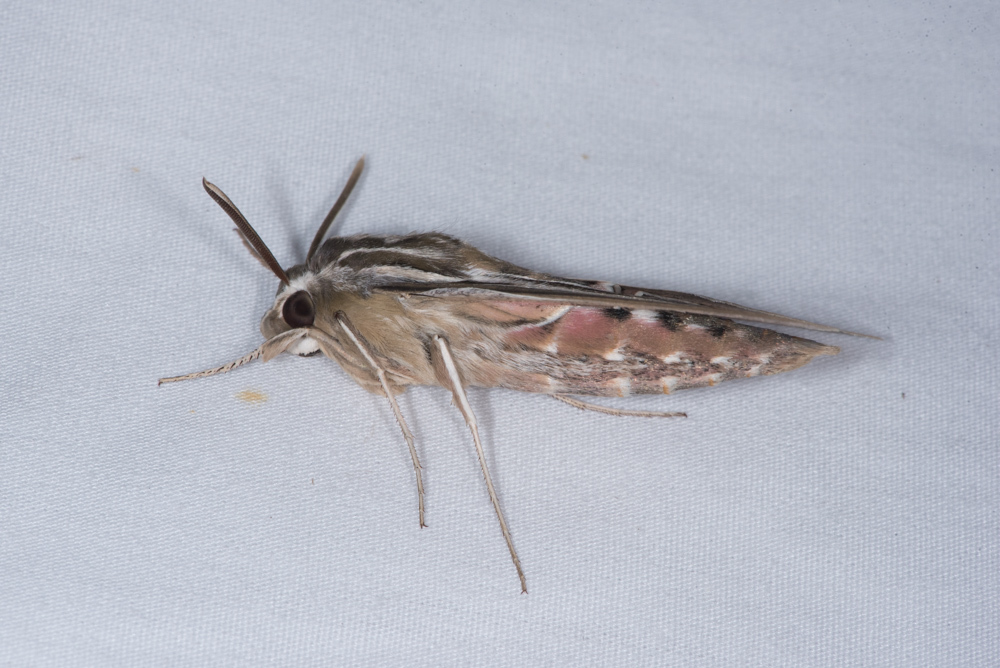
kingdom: Animalia
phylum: Arthropoda
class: Insecta
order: Lepidoptera
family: Sphingidae
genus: Hyles
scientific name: Hyles lineata
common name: White-lined sphinx
